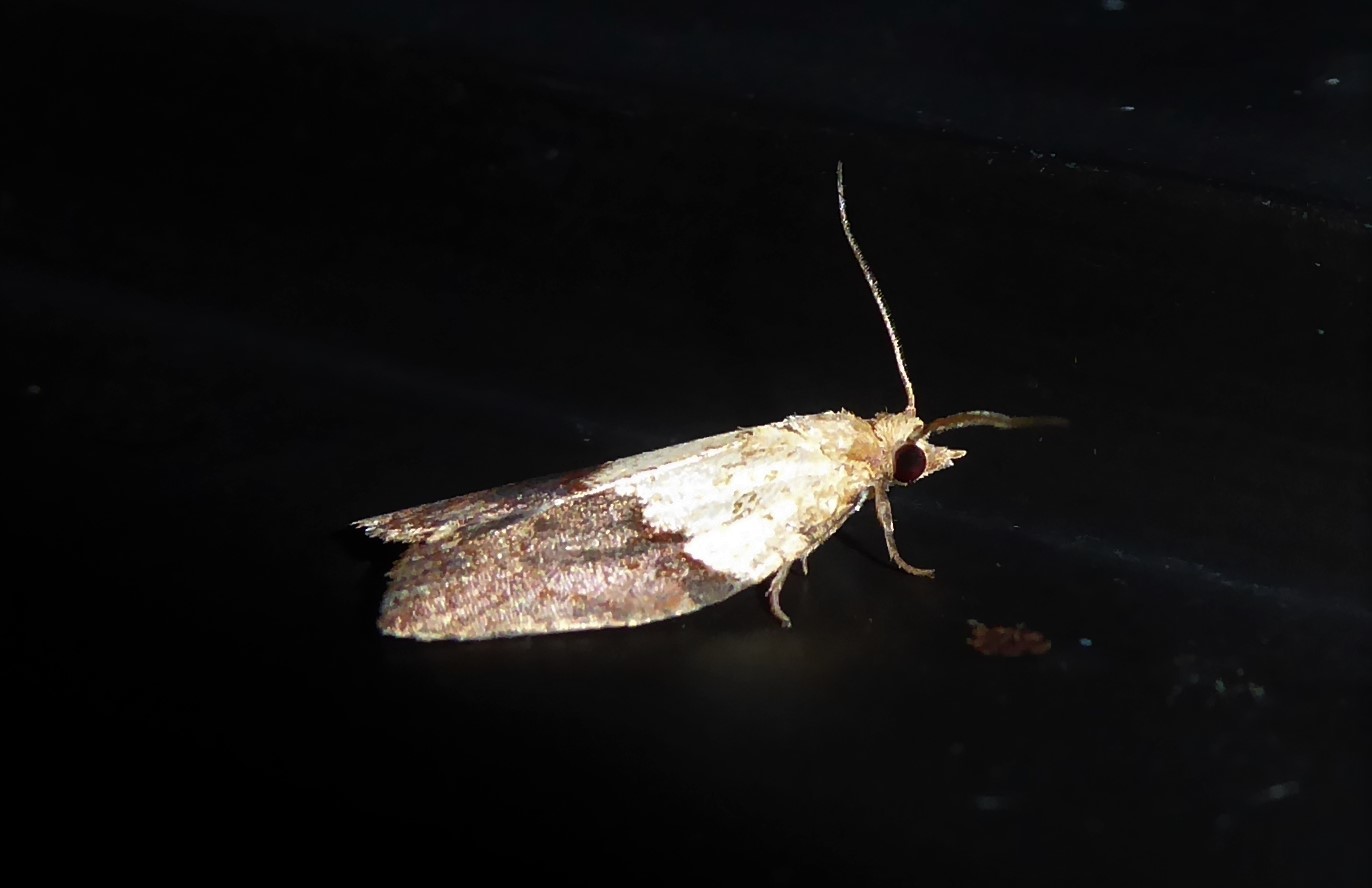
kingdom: Animalia
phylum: Arthropoda
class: Insecta
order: Lepidoptera
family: Tortricidae
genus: Epiphyas
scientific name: Epiphyas postvittana
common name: Light brown apple moth
